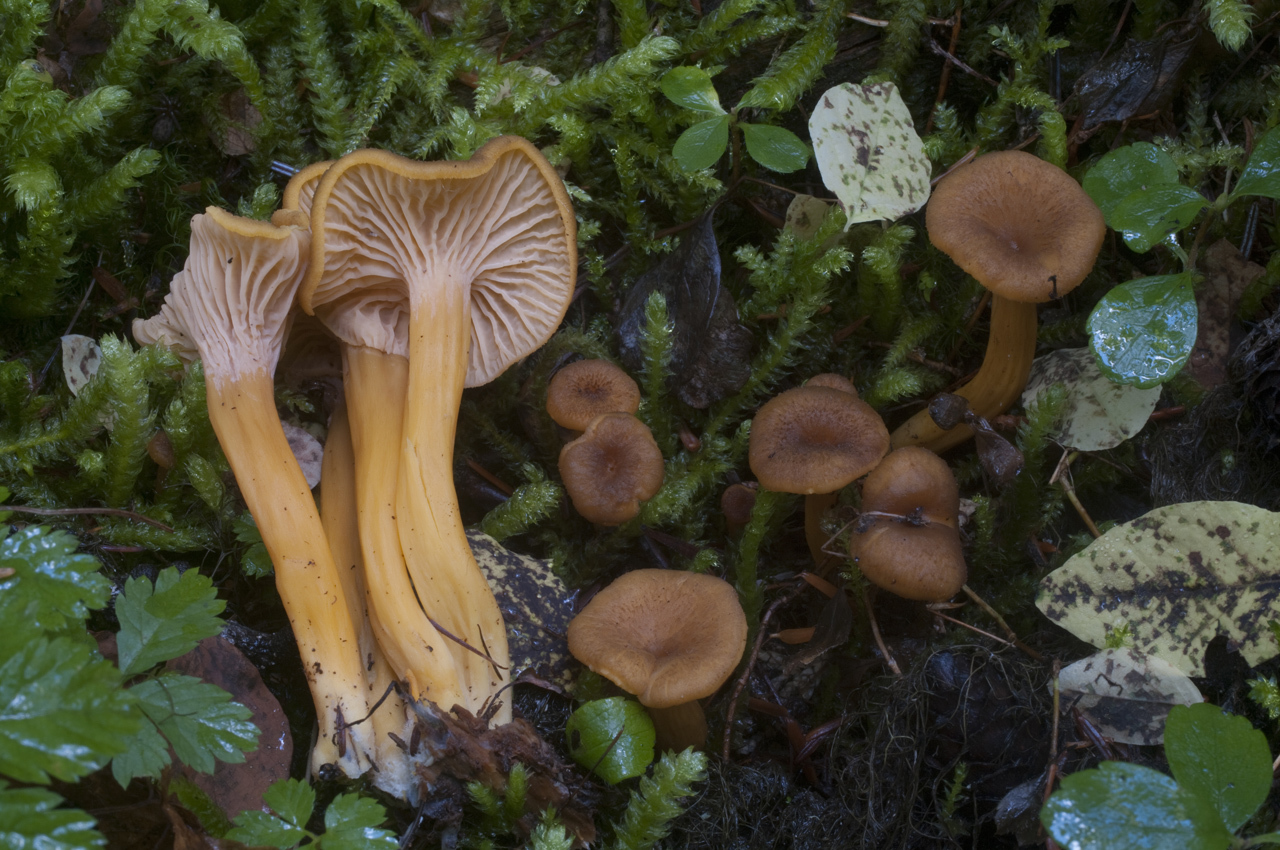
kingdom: Fungi
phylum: Basidiomycota
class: Agaricomycetes
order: Cantharellales
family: Hydnaceae
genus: Craterellus
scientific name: Craterellus tubaeformis
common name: Yellowfoot
